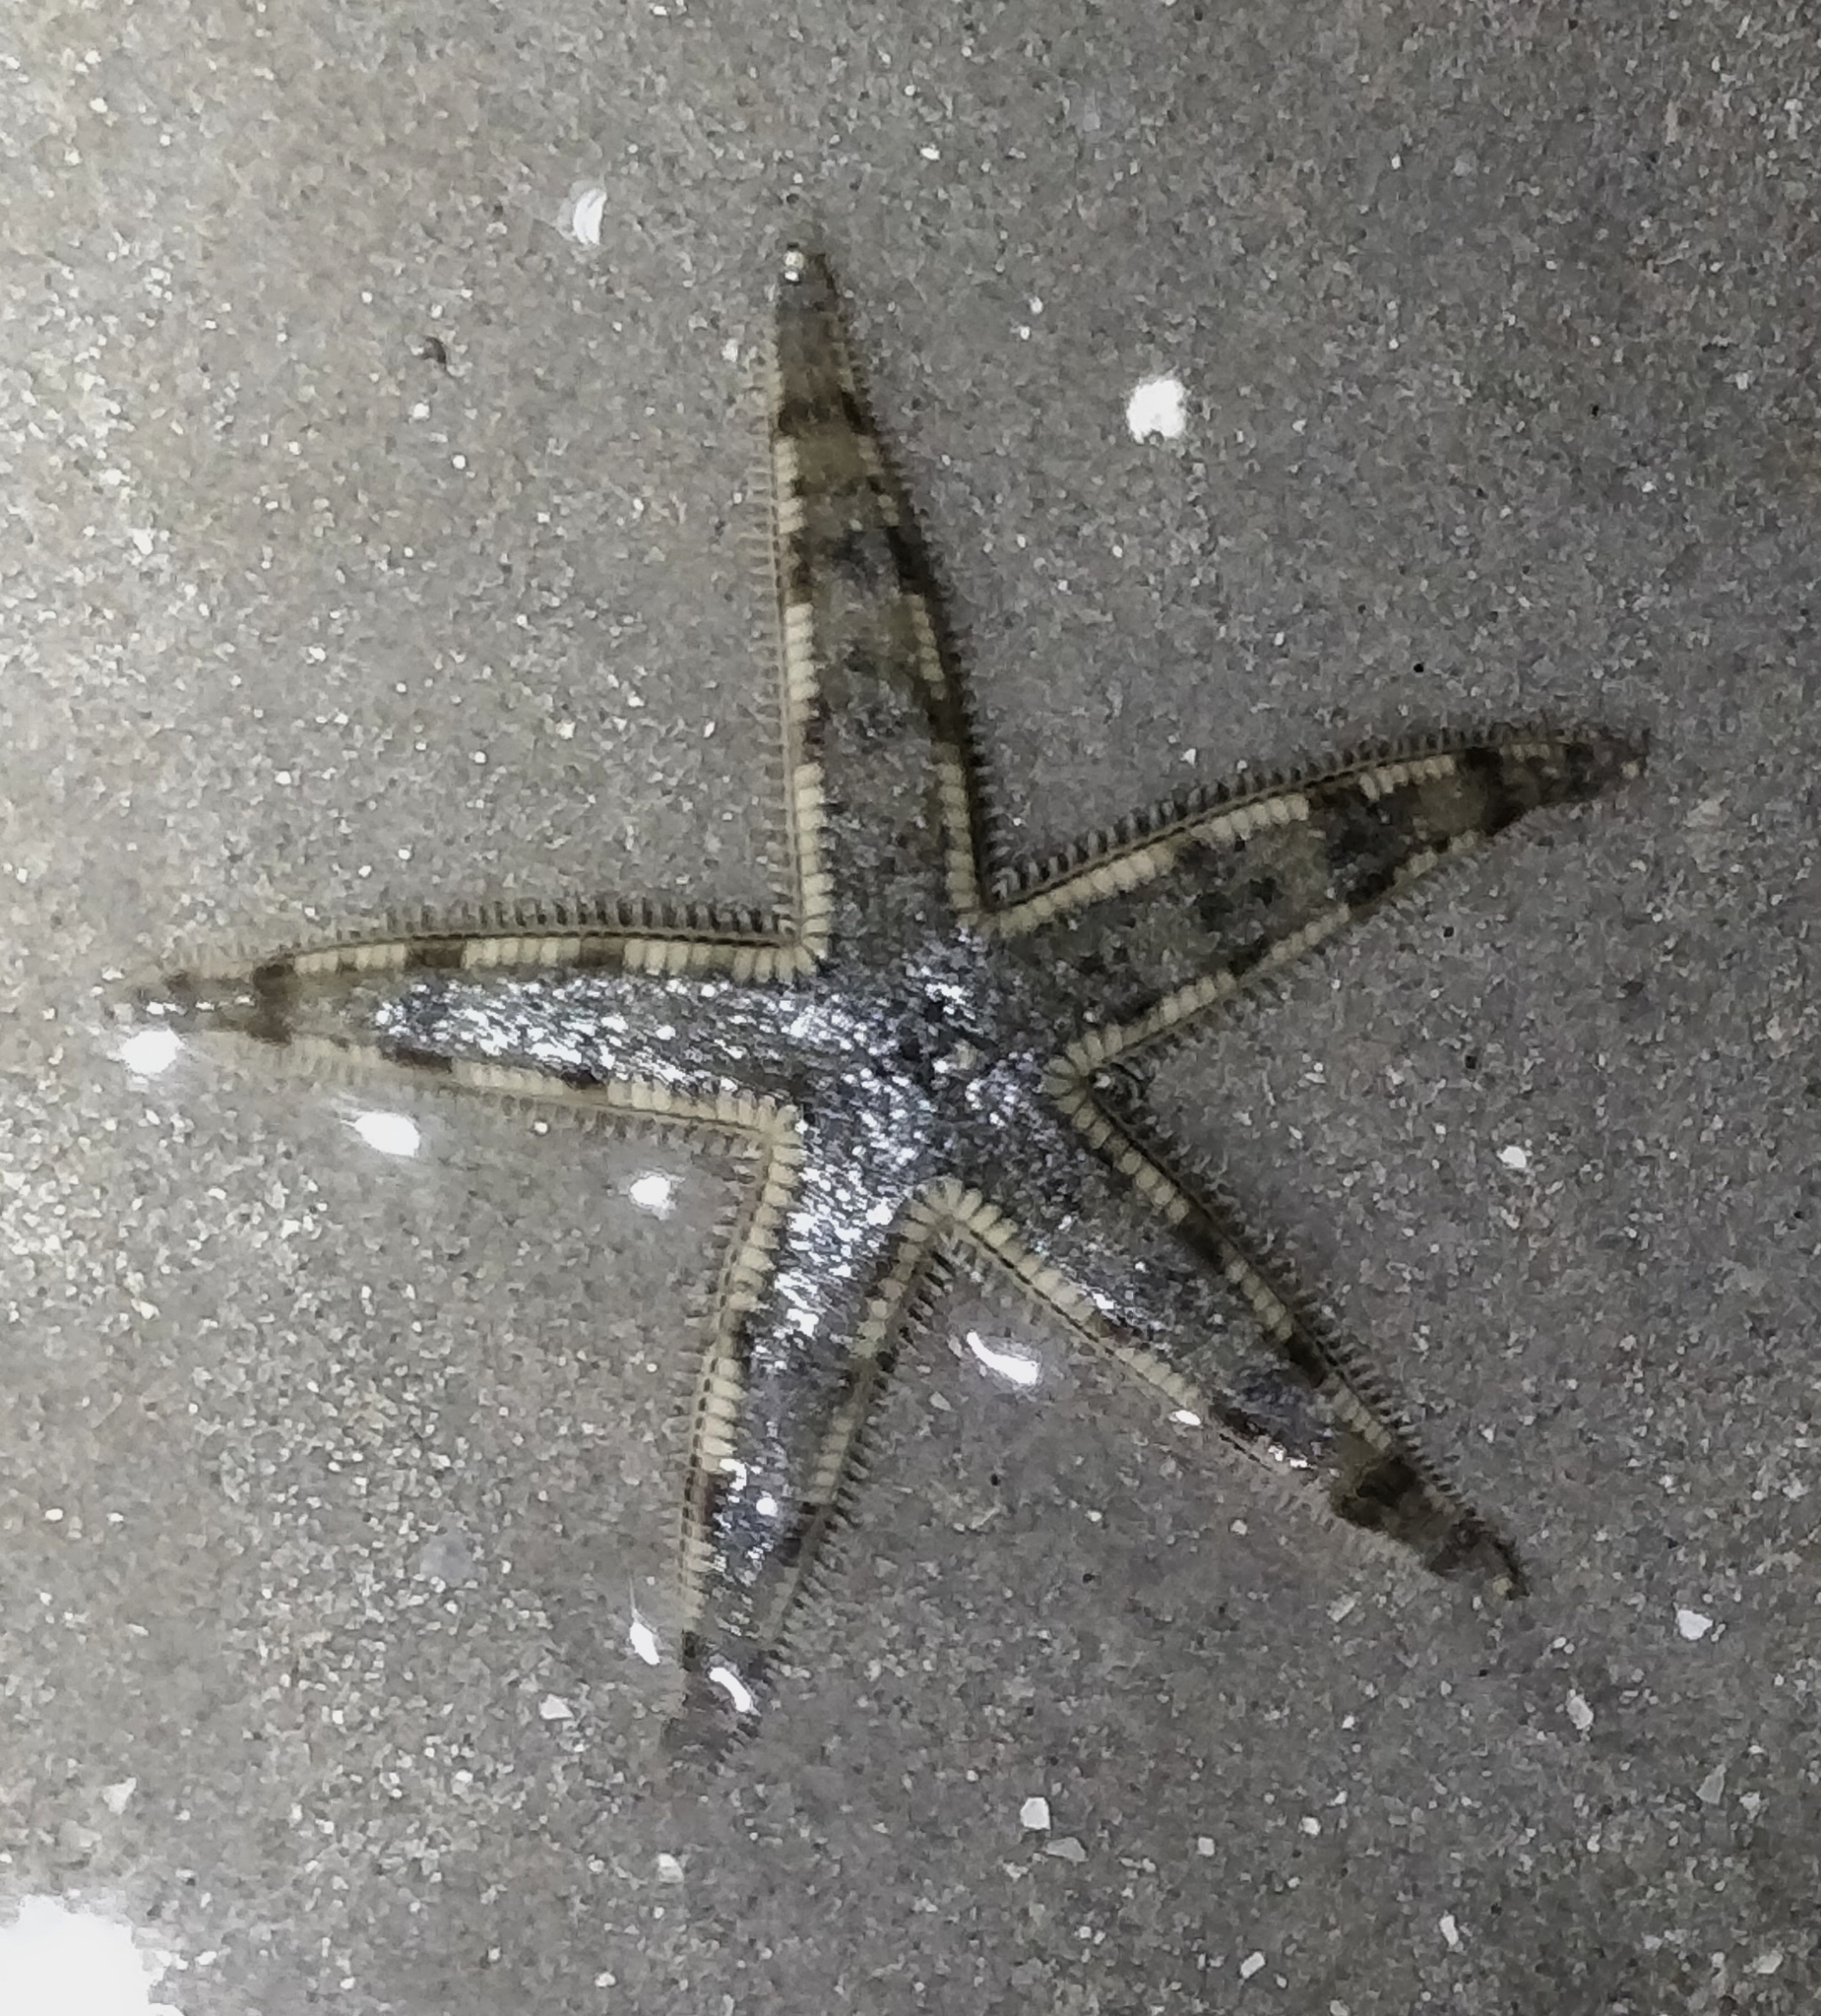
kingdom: Animalia
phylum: Echinodermata
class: Asteroidea
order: Valvatida
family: Archasteridae
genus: Archaster
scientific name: Archaster typicus
